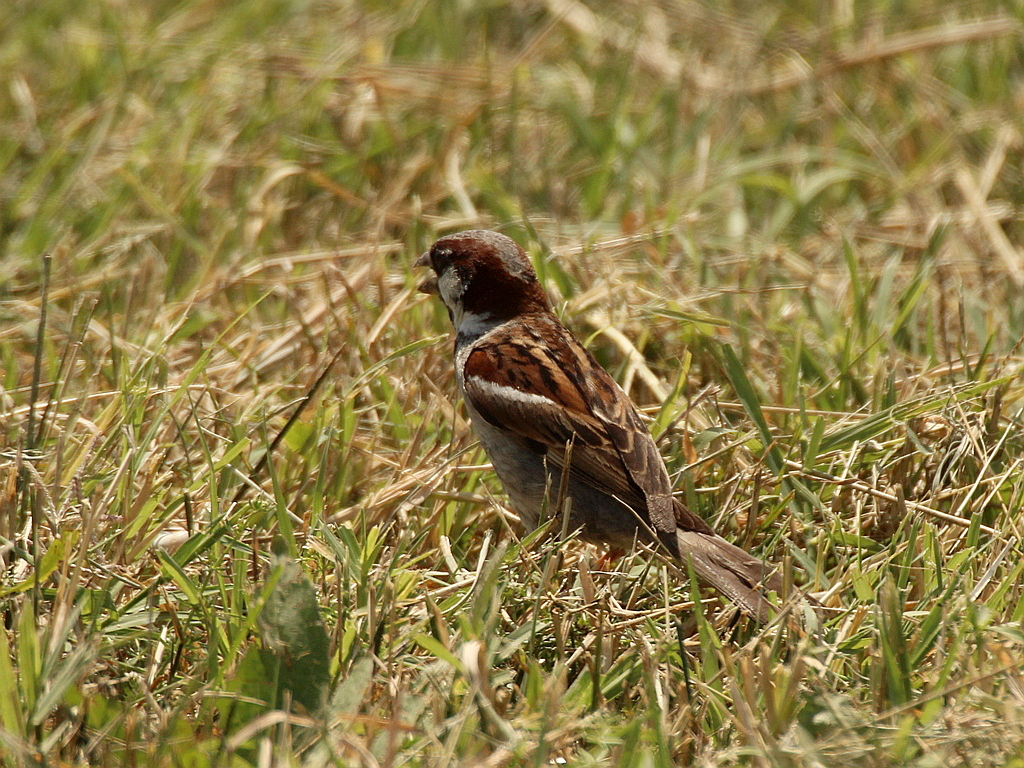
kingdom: Animalia
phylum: Chordata
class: Aves
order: Passeriformes
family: Passeridae
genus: Passer
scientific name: Passer domesticus
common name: House sparrow
